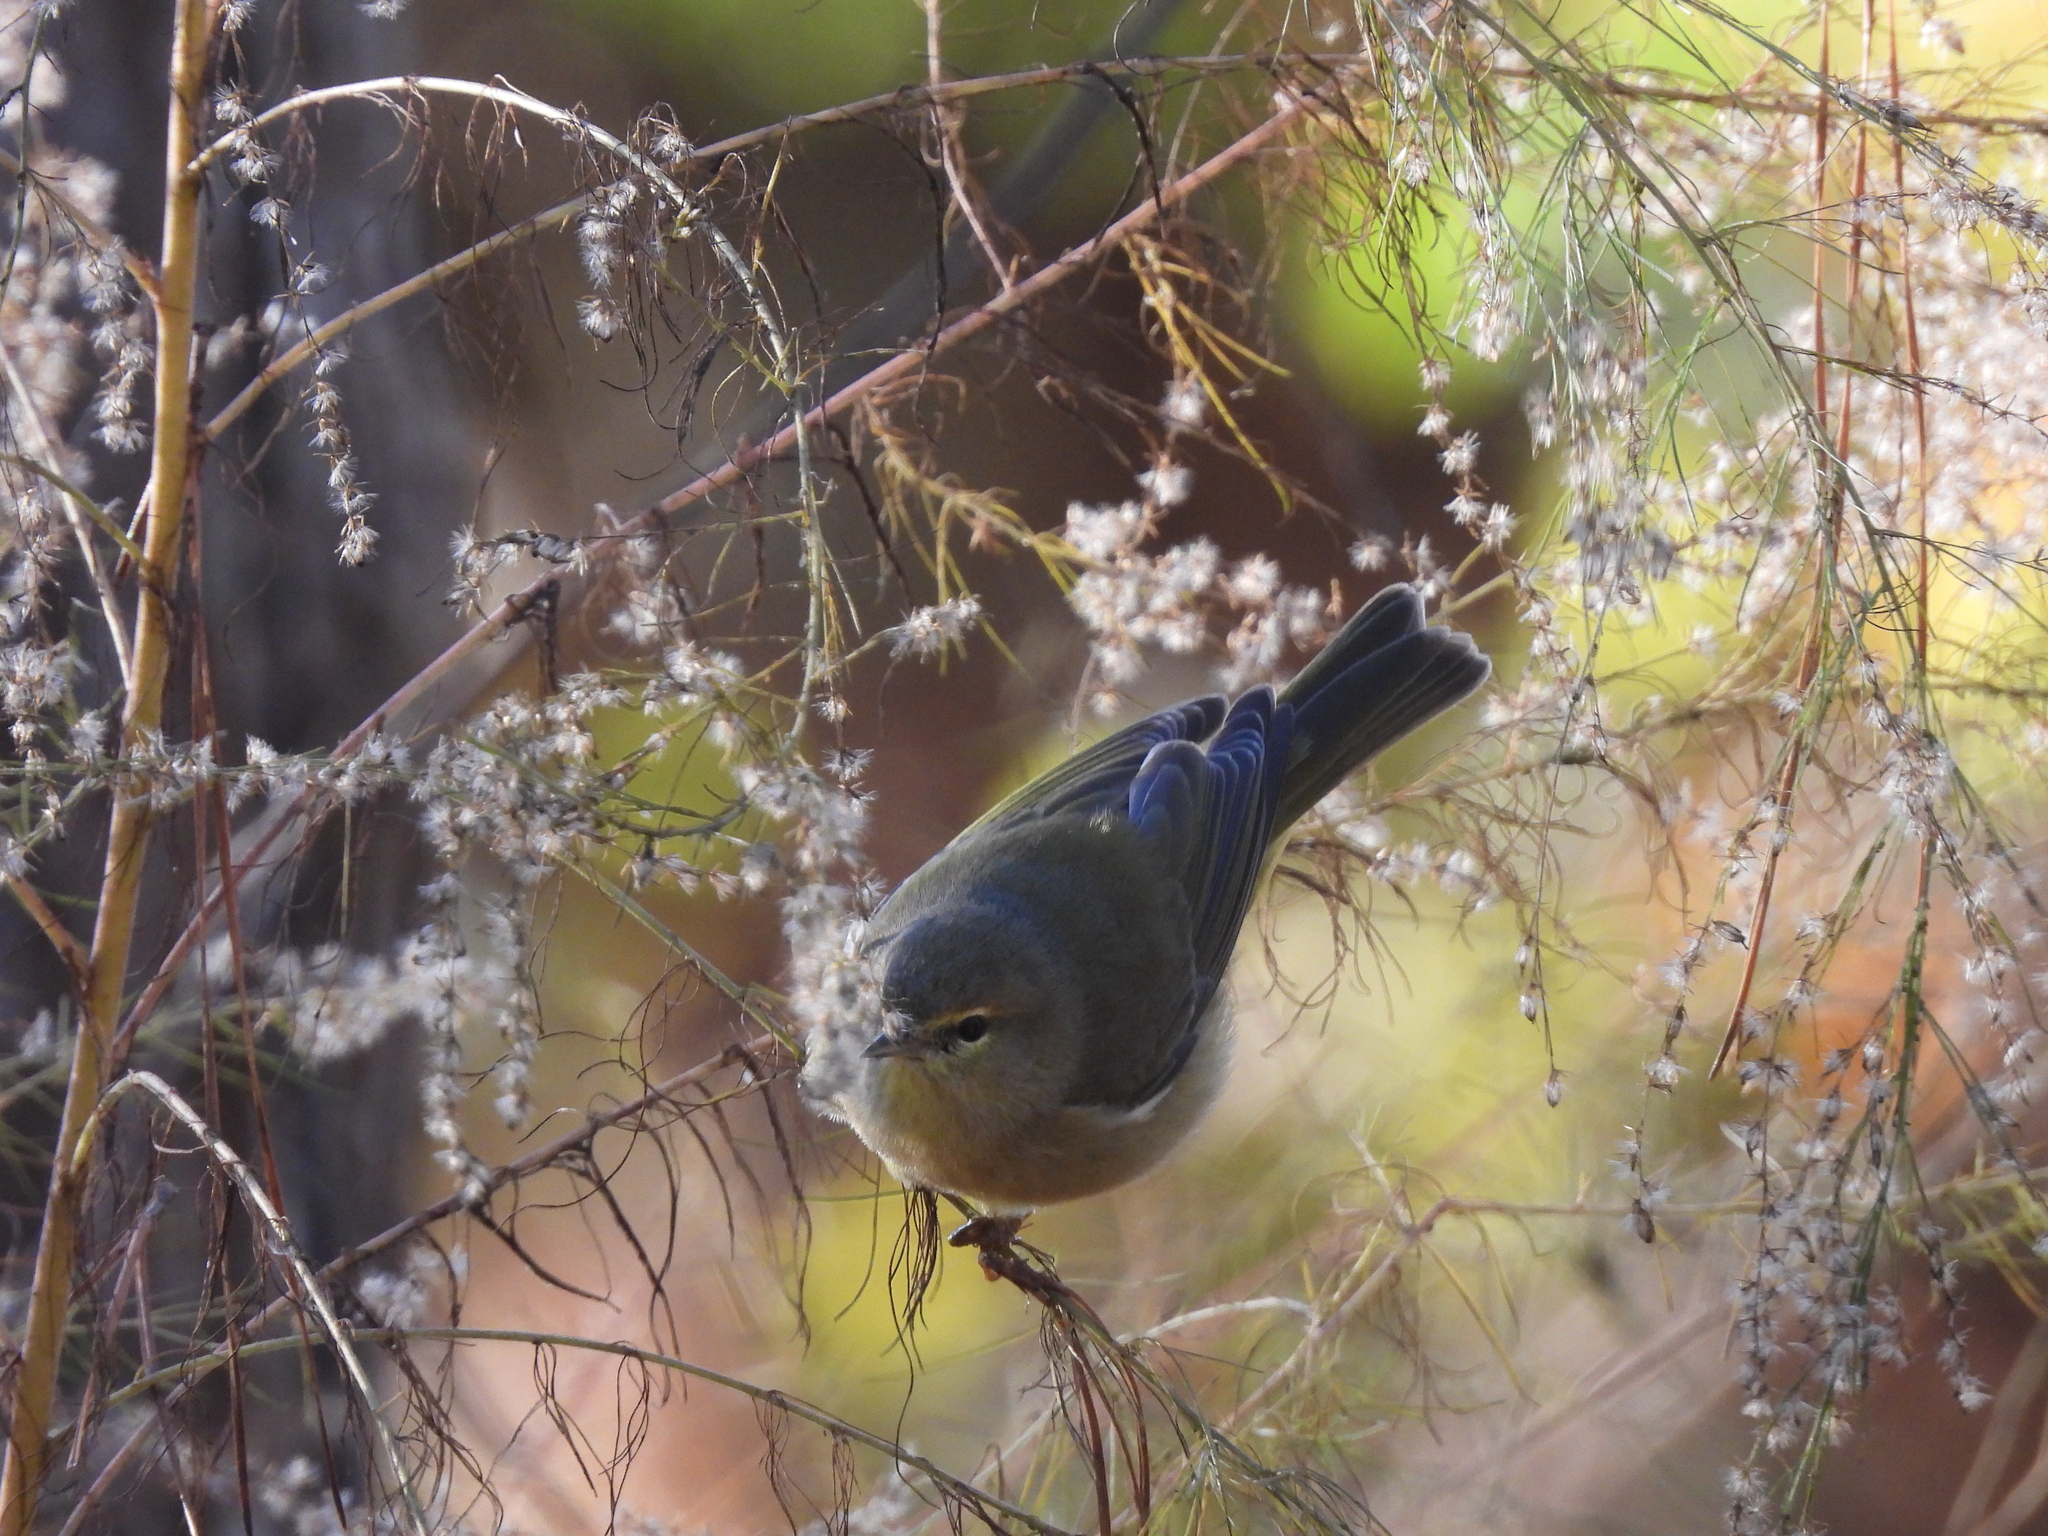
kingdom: Animalia
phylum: Chordata
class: Aves
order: Passeriformes
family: Parulidae
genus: Leiothlypis
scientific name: Leiothlypis celata
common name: Orange-crowned warbler
